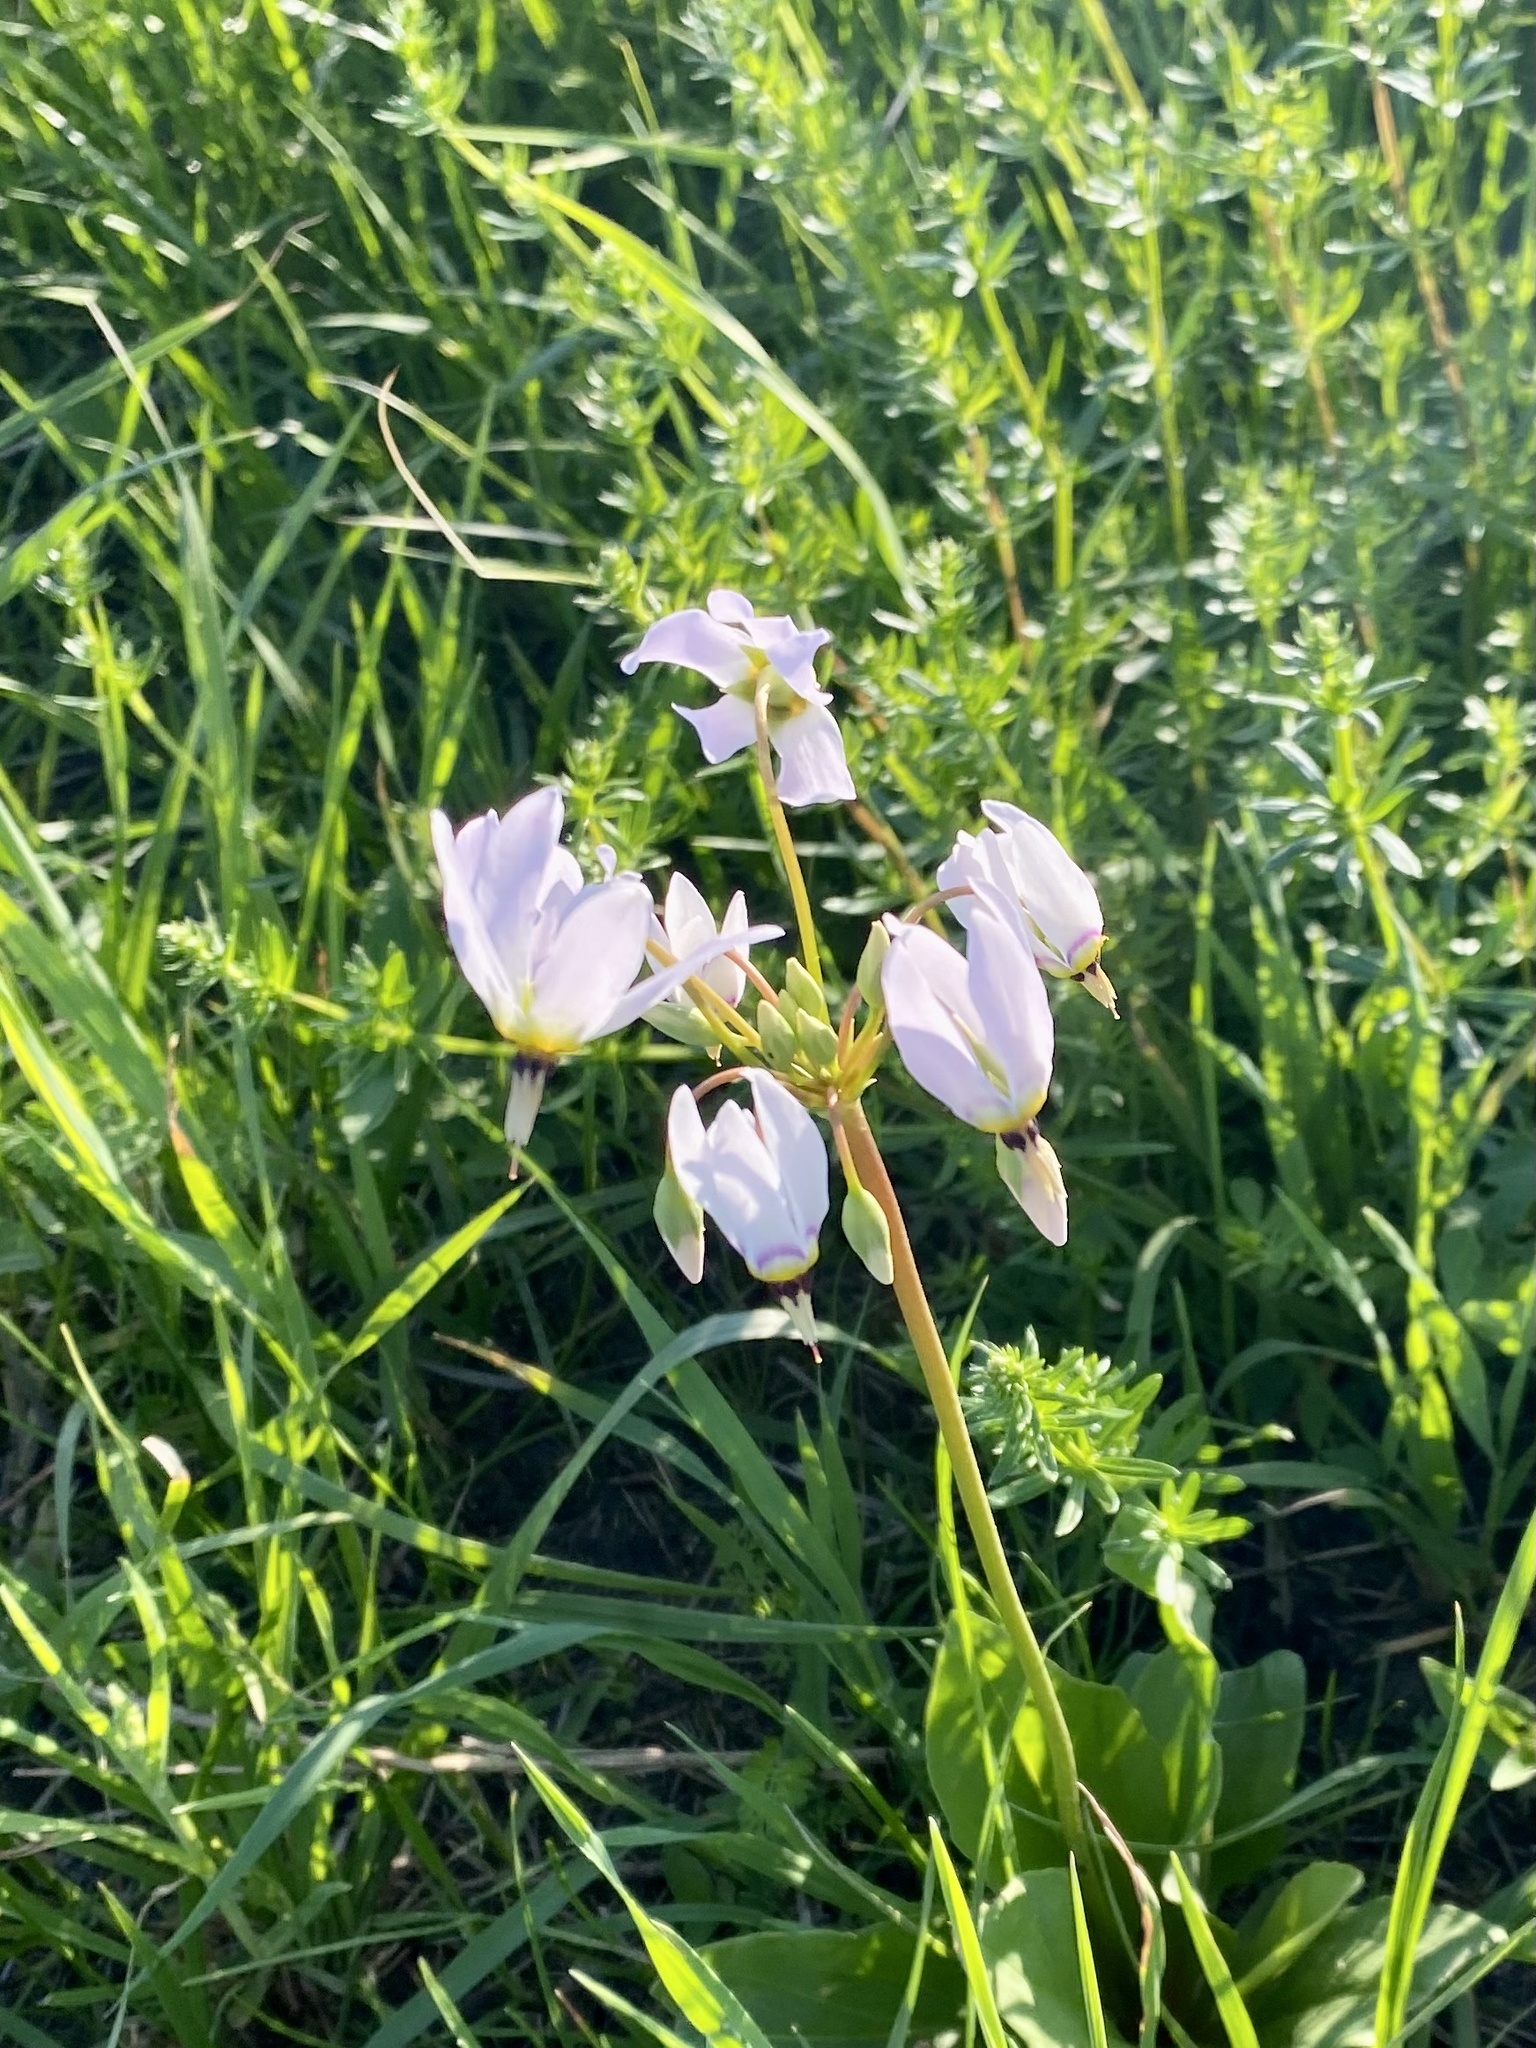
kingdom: Plantae
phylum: Tracheophyta
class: Magnoliopsida
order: Ericales
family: Primulaceae
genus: Dodecatheon
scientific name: Dodecatheon meadia
